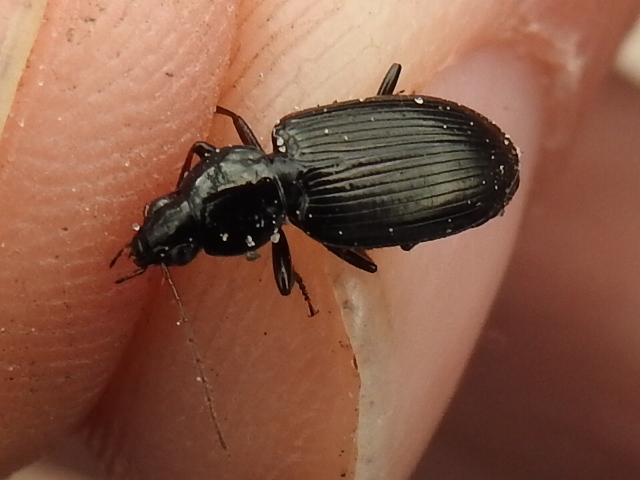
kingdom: Animalia
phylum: Arthropoda
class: Insecta
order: Coleoptera
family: Carabidae
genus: Agonum
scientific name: Agonum punctiforme
